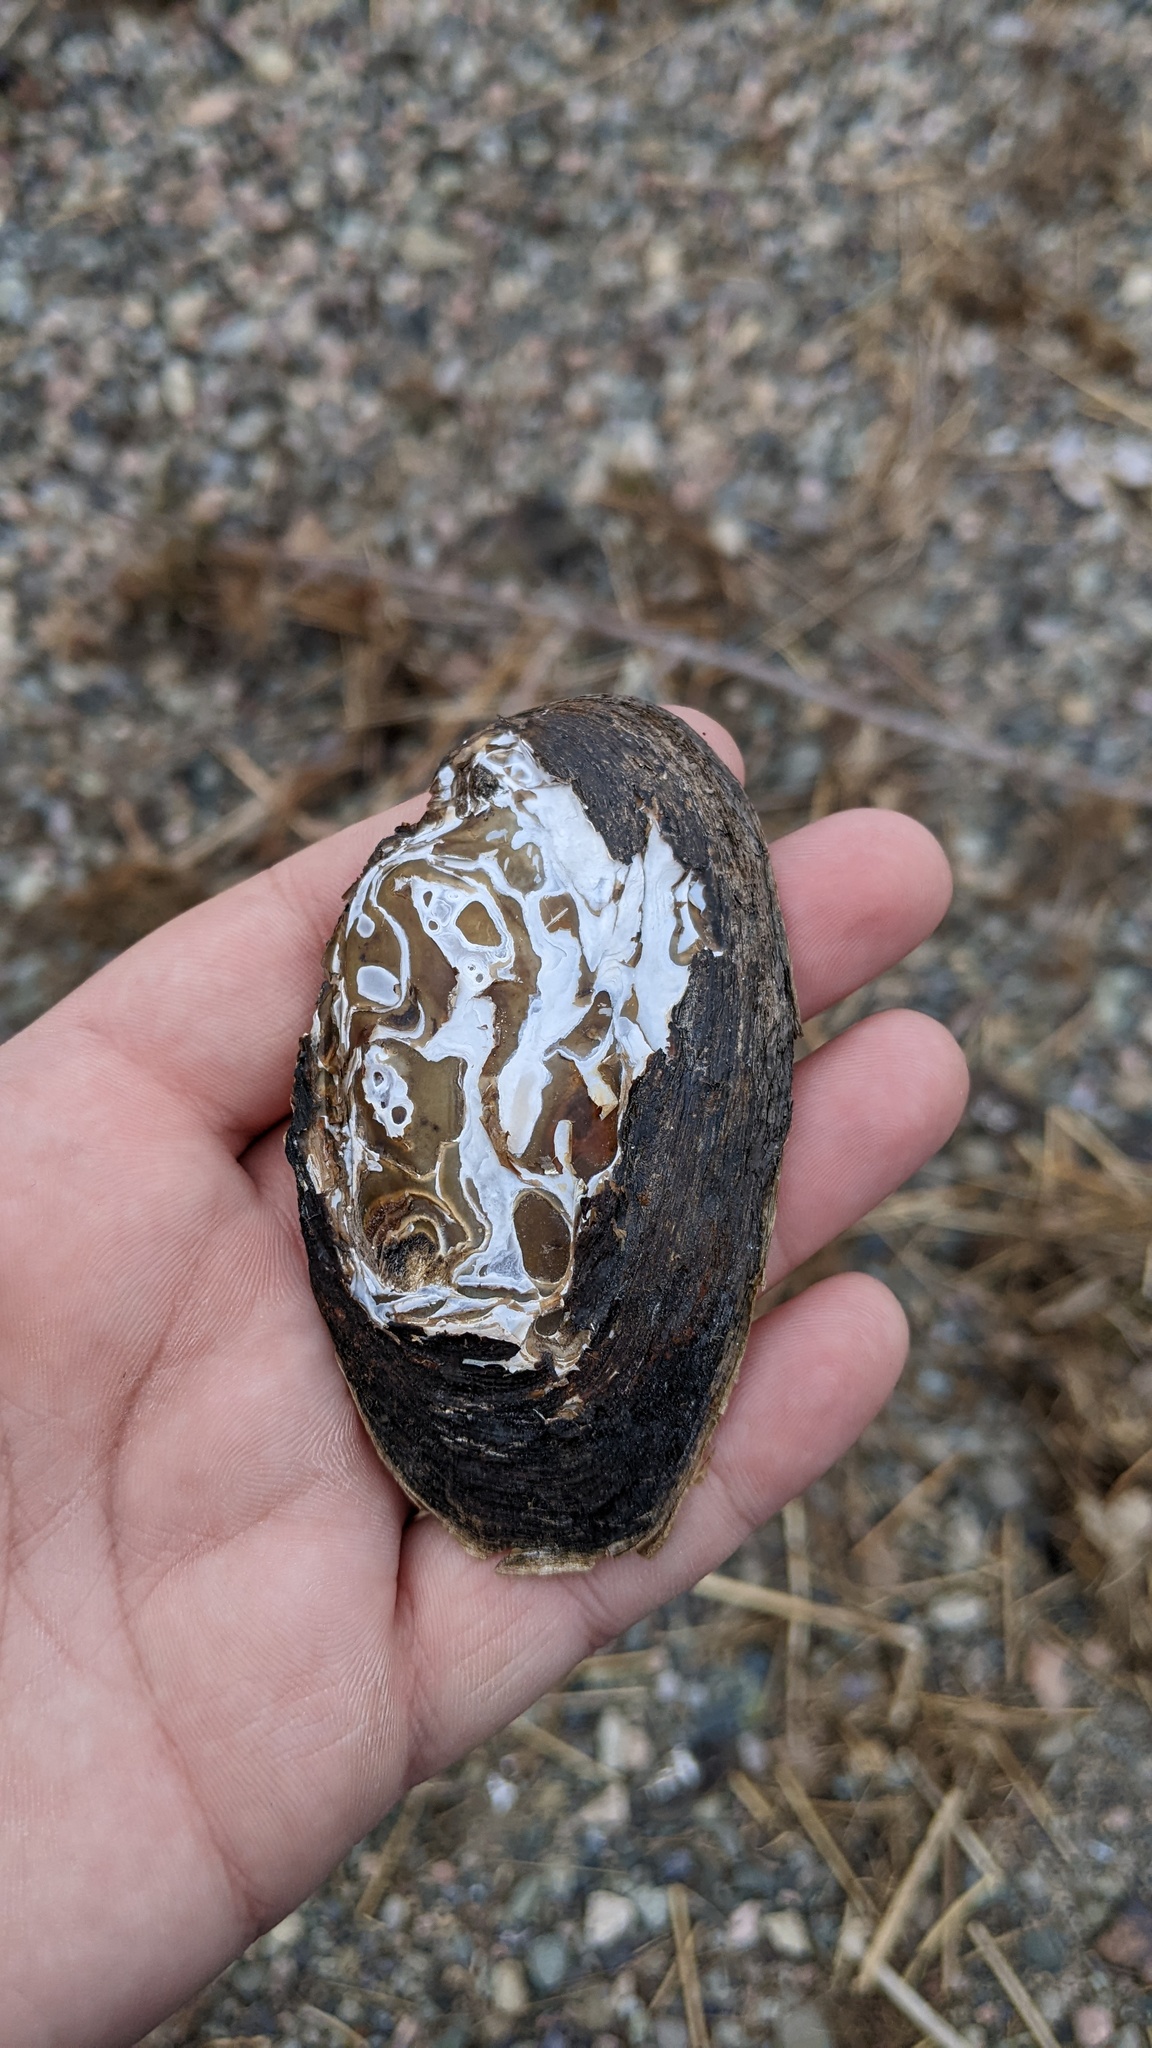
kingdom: Animalia
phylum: Mollusca
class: Bivalvia
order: Unionida
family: Unionidae
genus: Elliptio
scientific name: Elliptio complanata
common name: Eastern elliptio
